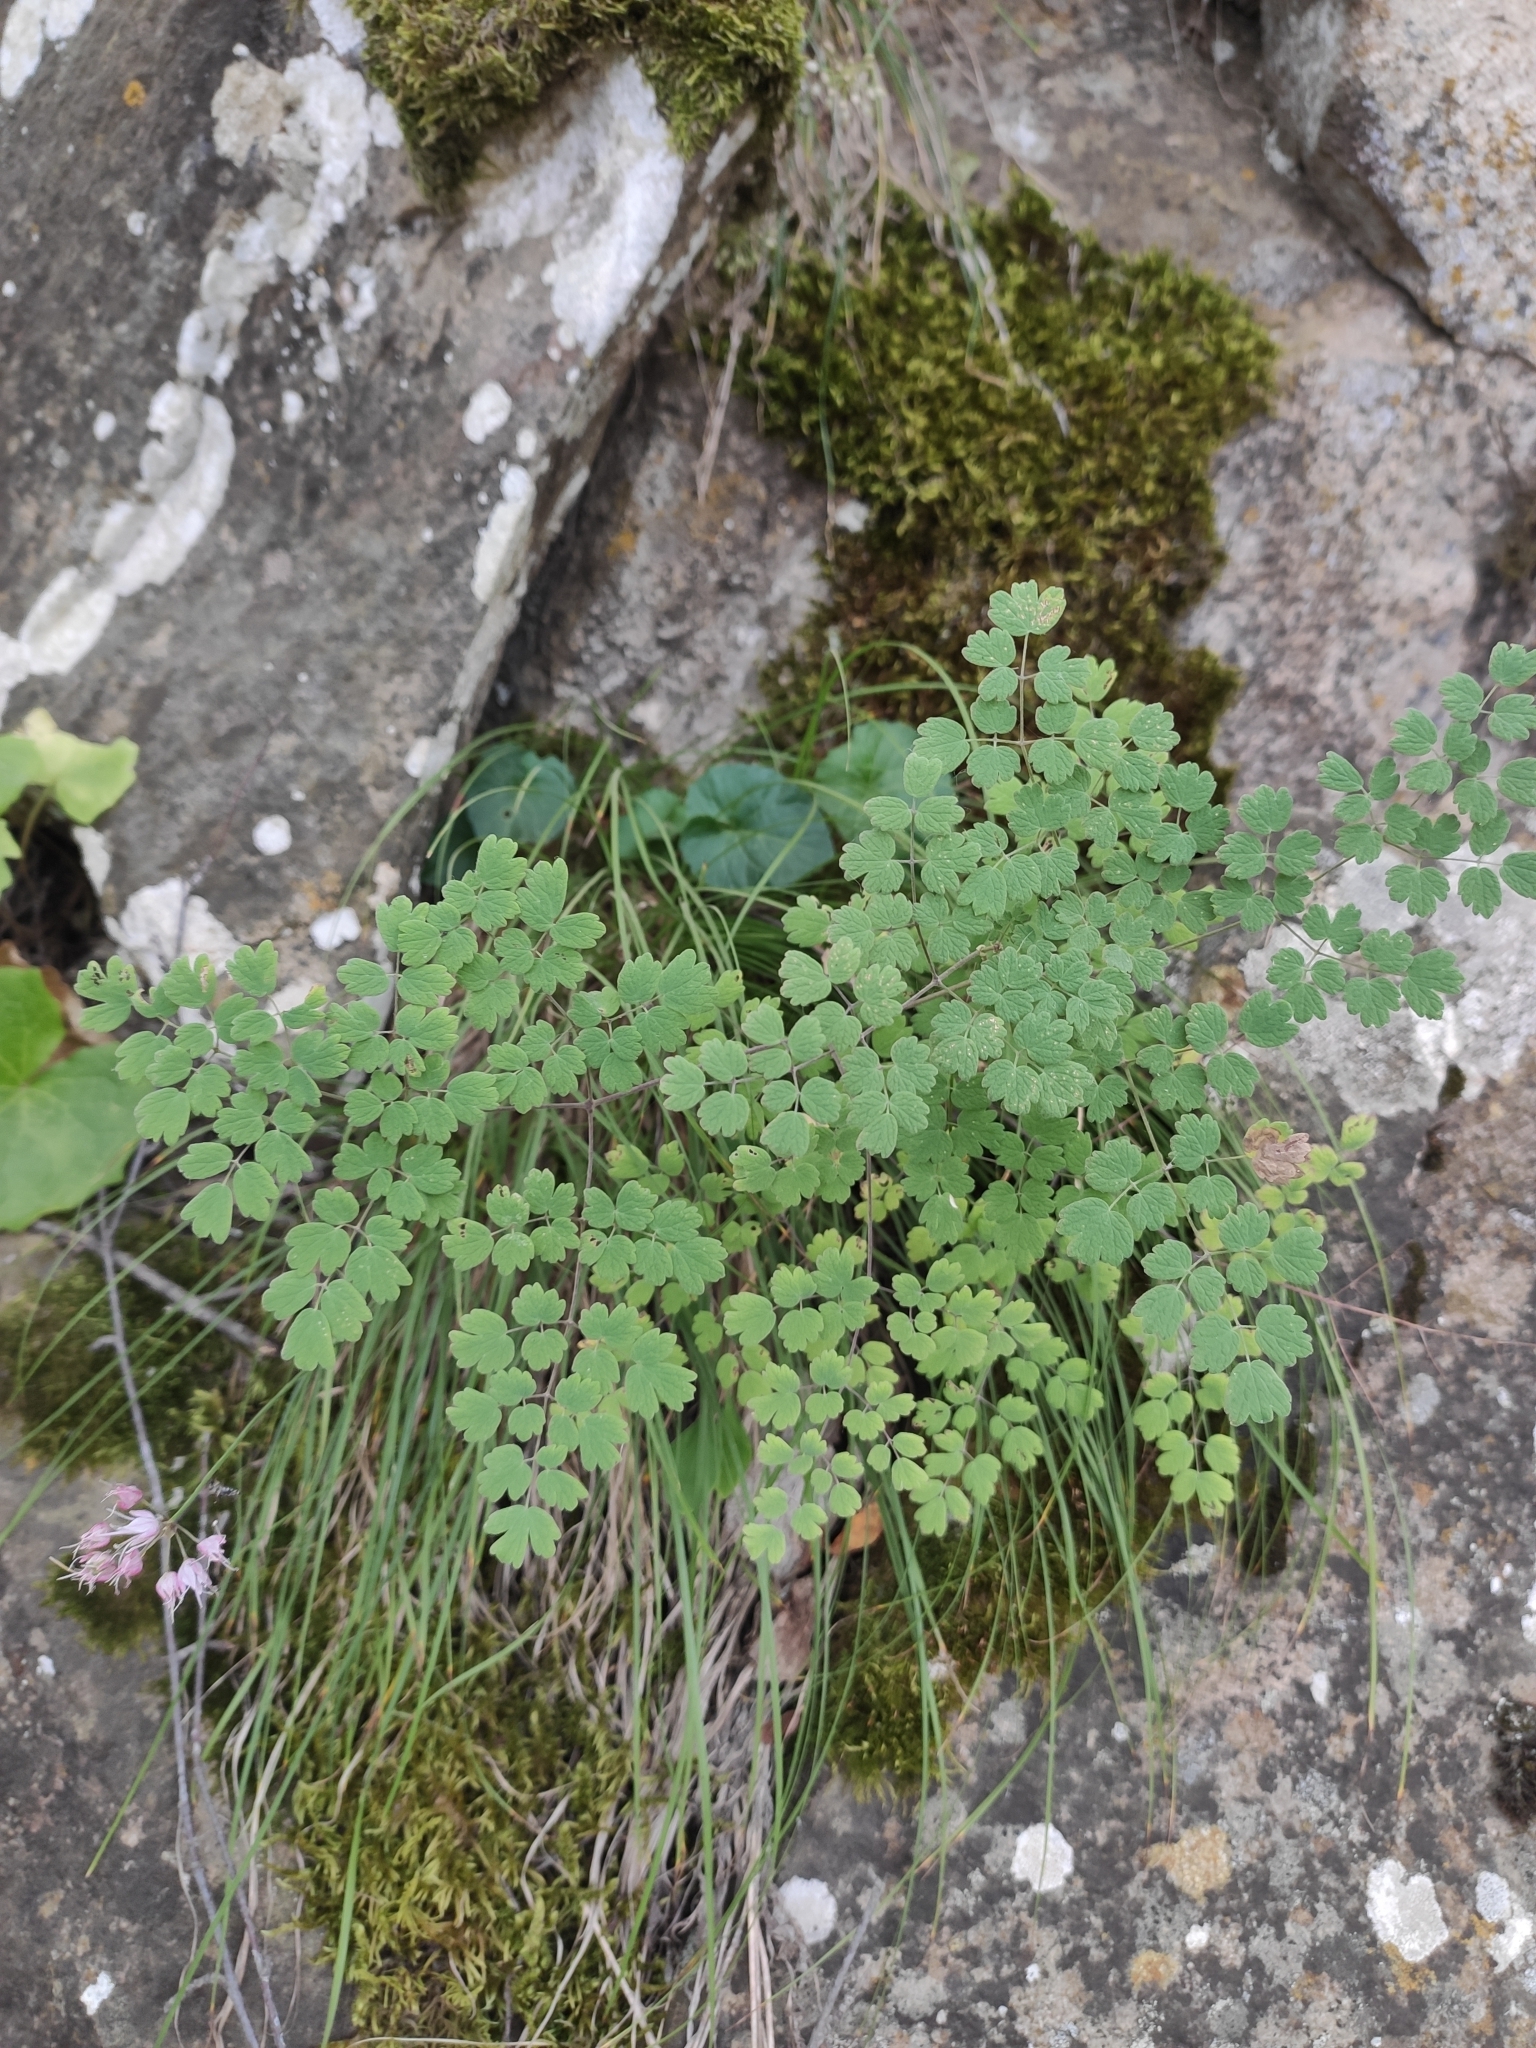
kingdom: Plantae
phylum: Tracheophyta
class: Polypodiopsida
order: Polypodiales
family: Pteridaceae
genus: Adiantum
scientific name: Adiantum capillus-veneris
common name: Maidenhair fern
